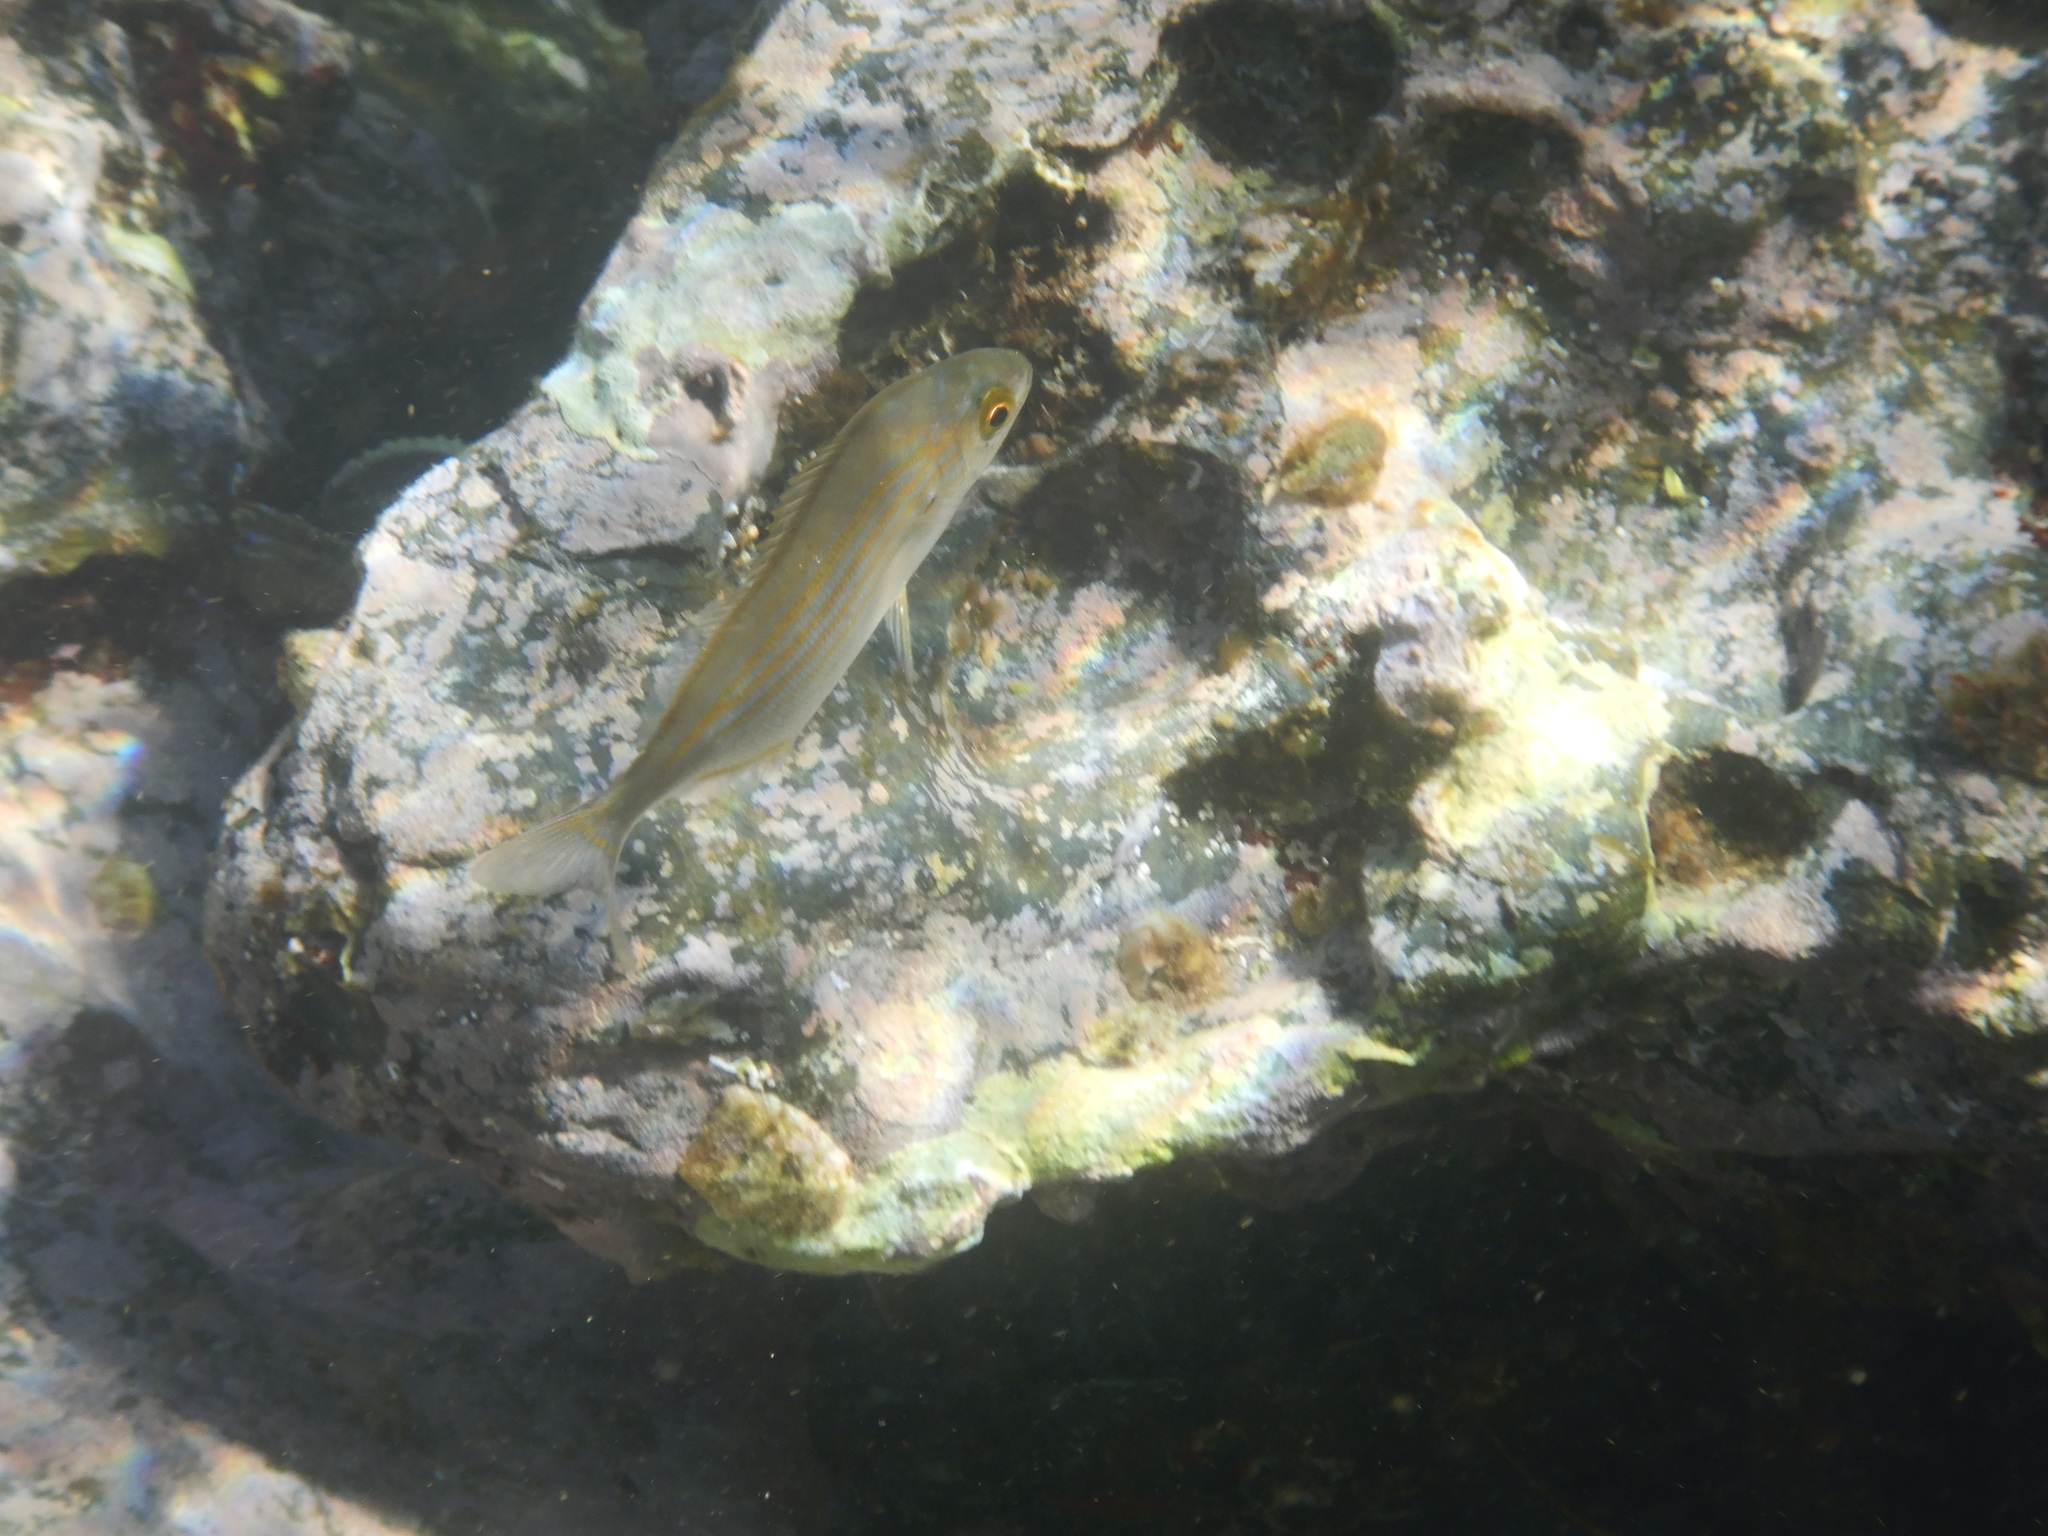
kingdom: Animalia
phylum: Chordata
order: Perciformes
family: Sparidae
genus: Sarpa
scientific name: Sarpa salpa
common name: Salema
